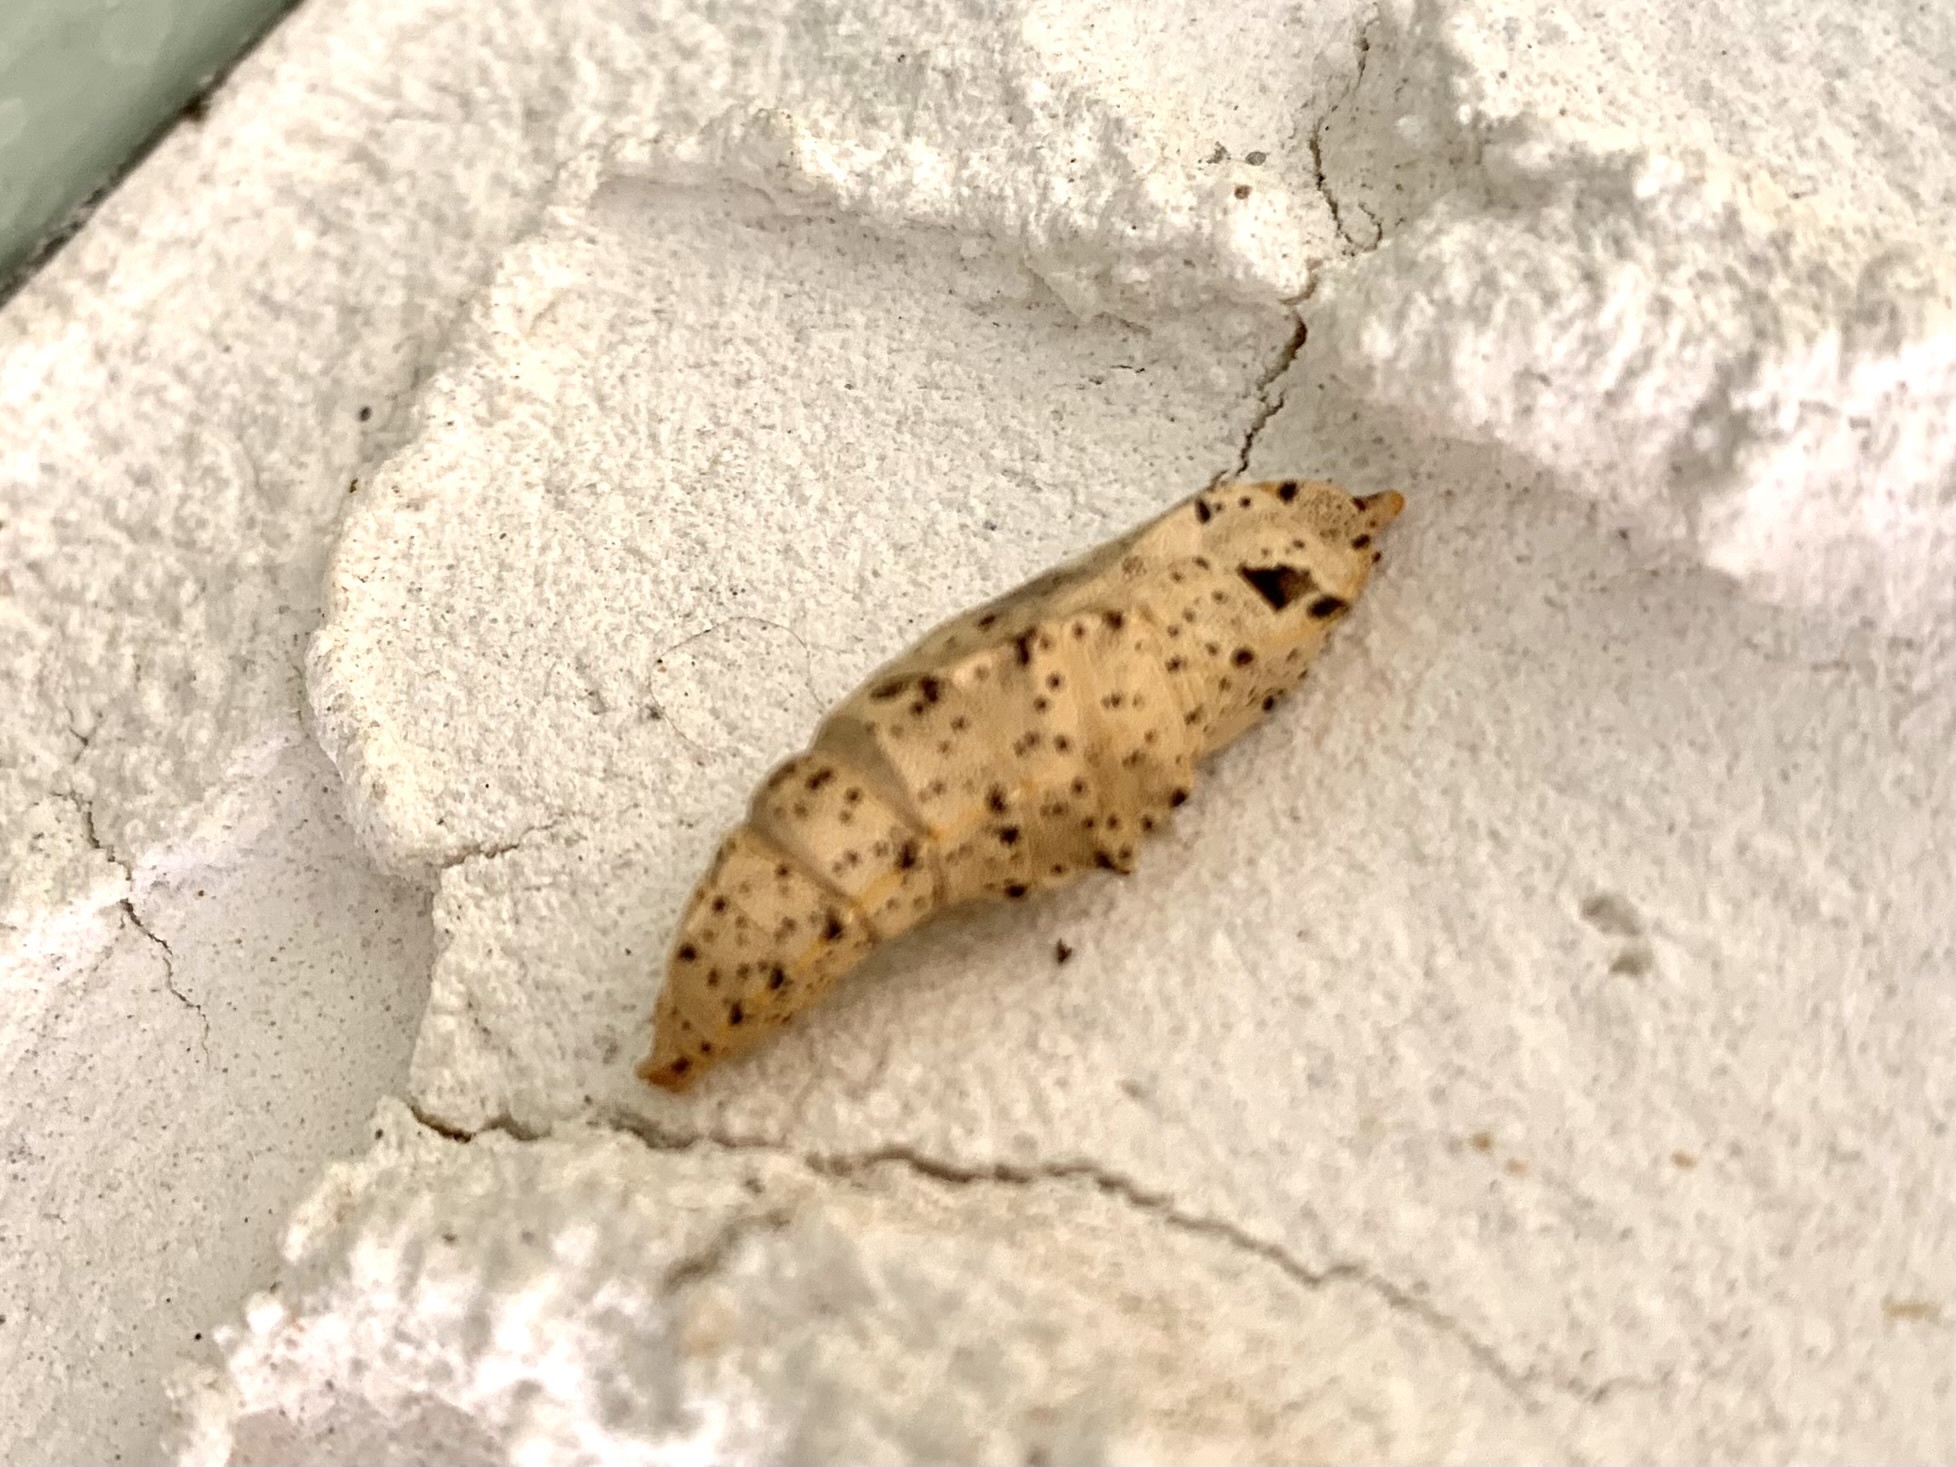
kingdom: Animalia
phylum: Arthropoda
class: Insecta
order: Lepidoptera
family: Pieridae
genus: Pieris
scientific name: Pieris brassicae
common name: Large white
